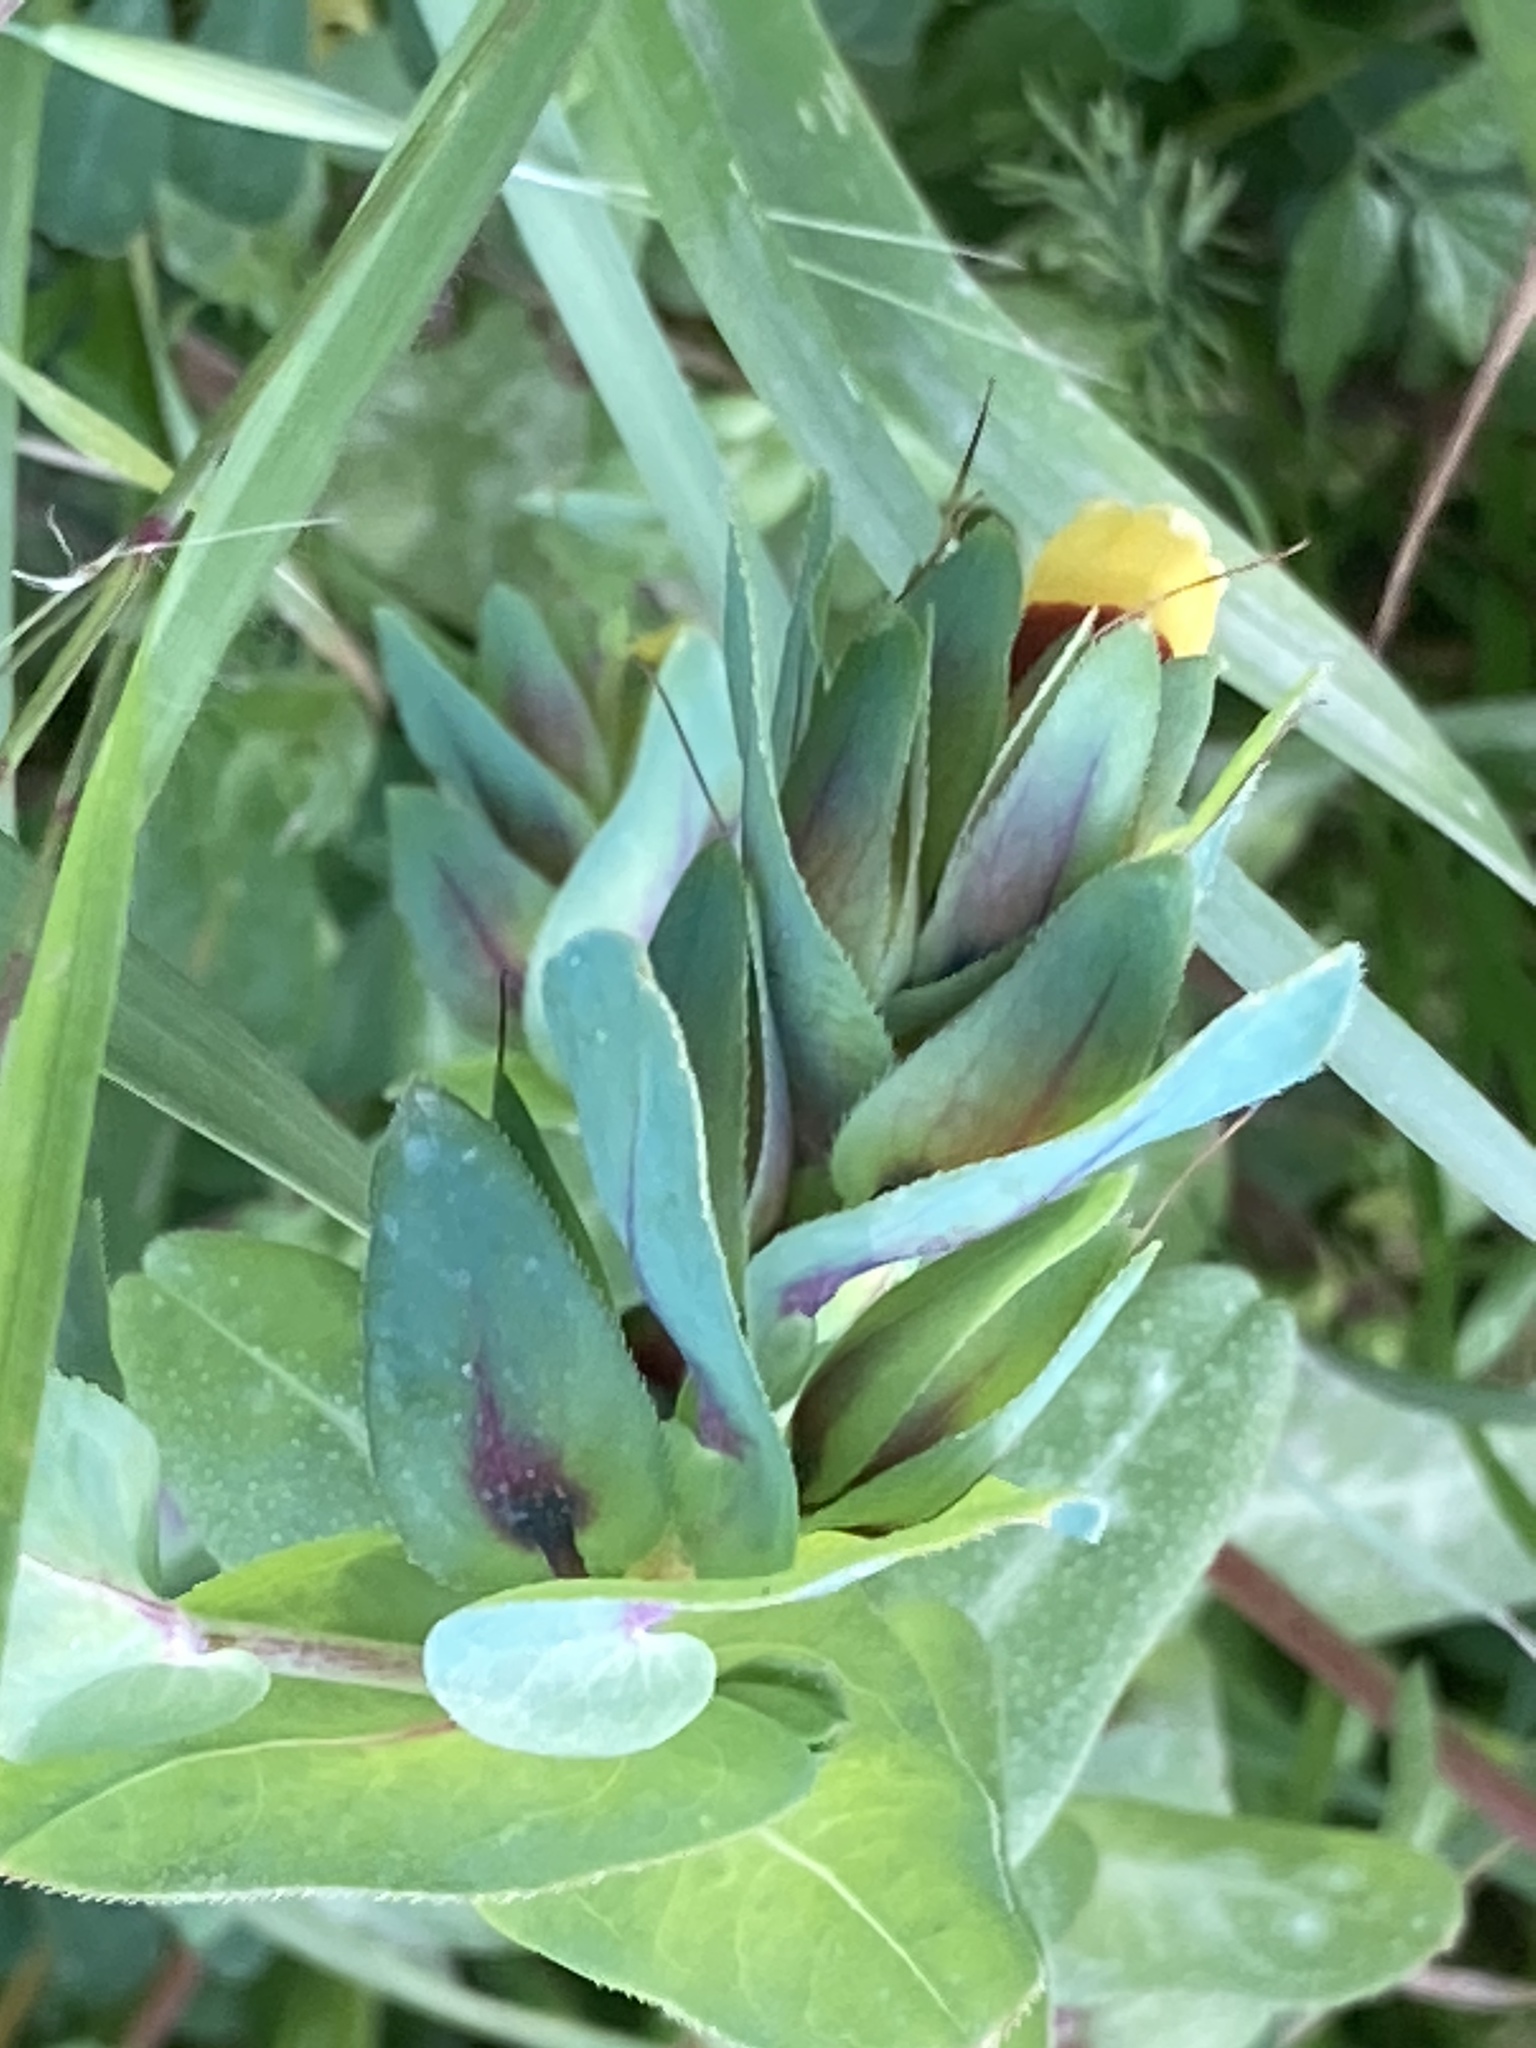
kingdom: Plantae
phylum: Tracheophyta
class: Magnoliopsida
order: Boraginales
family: Boraginaceae
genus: Cerinthe
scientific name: Cerinthe major
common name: Greater honeywort
